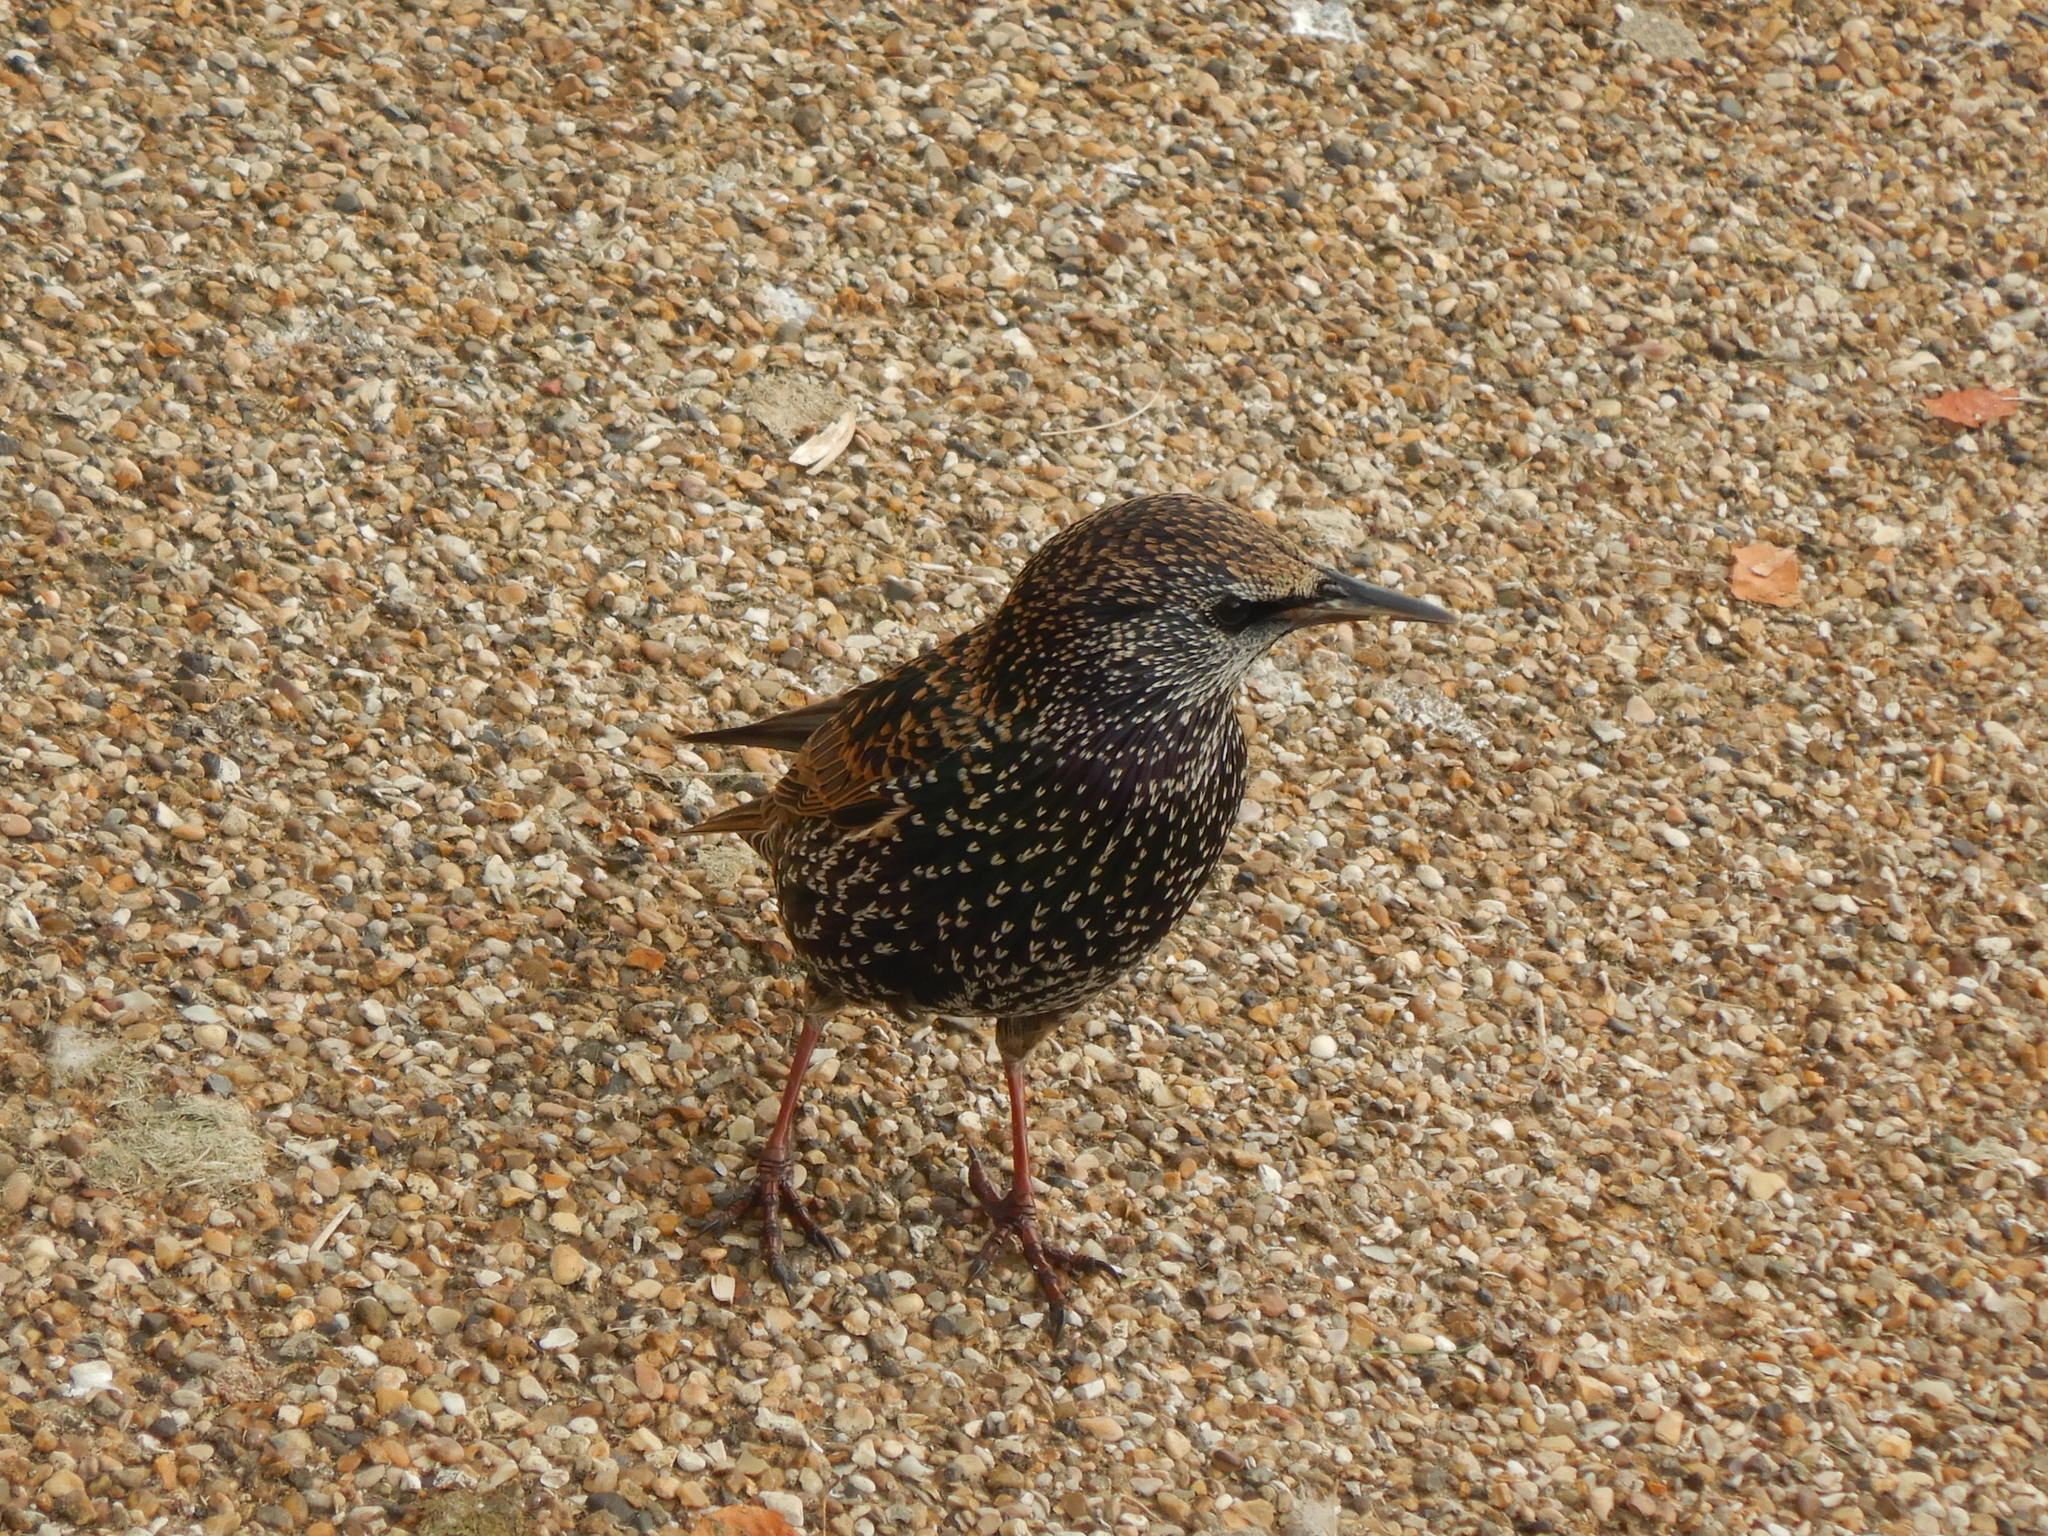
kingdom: Animalia
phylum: Chordata
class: Aves
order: Passeriformes
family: Sturnidae
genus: Sturnus
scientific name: Sturnus vulgaris
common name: Common starling
